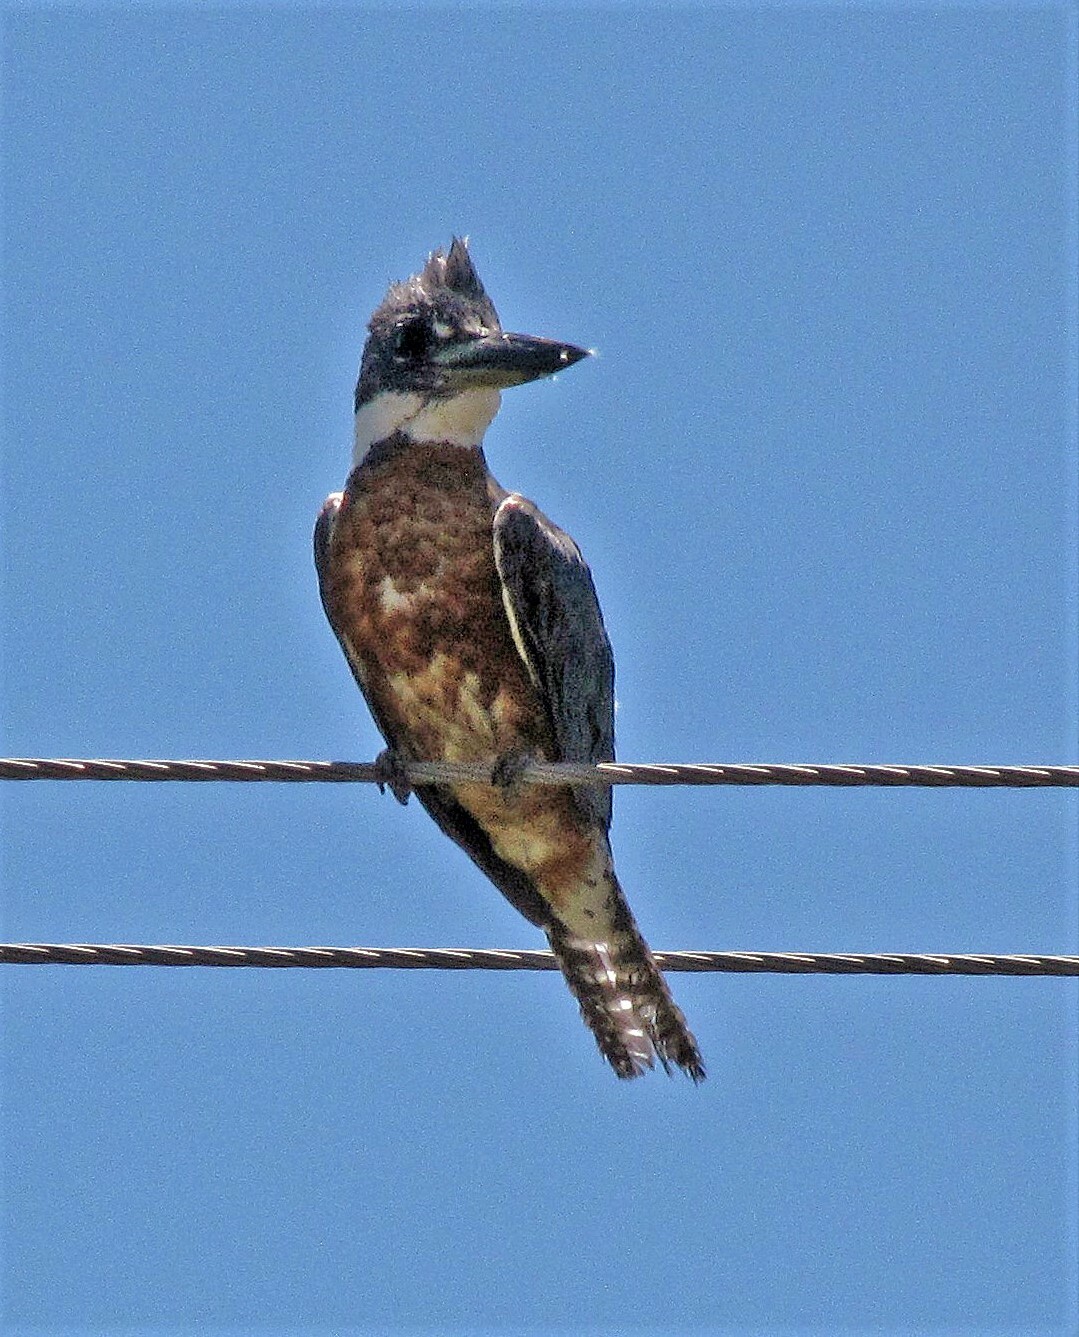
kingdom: Animalia
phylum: Chordata
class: Aves
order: Coraciiformes
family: Alcedinidae
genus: Megaceryle
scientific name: Megaceryle torquata
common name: Ringed kingfisher
